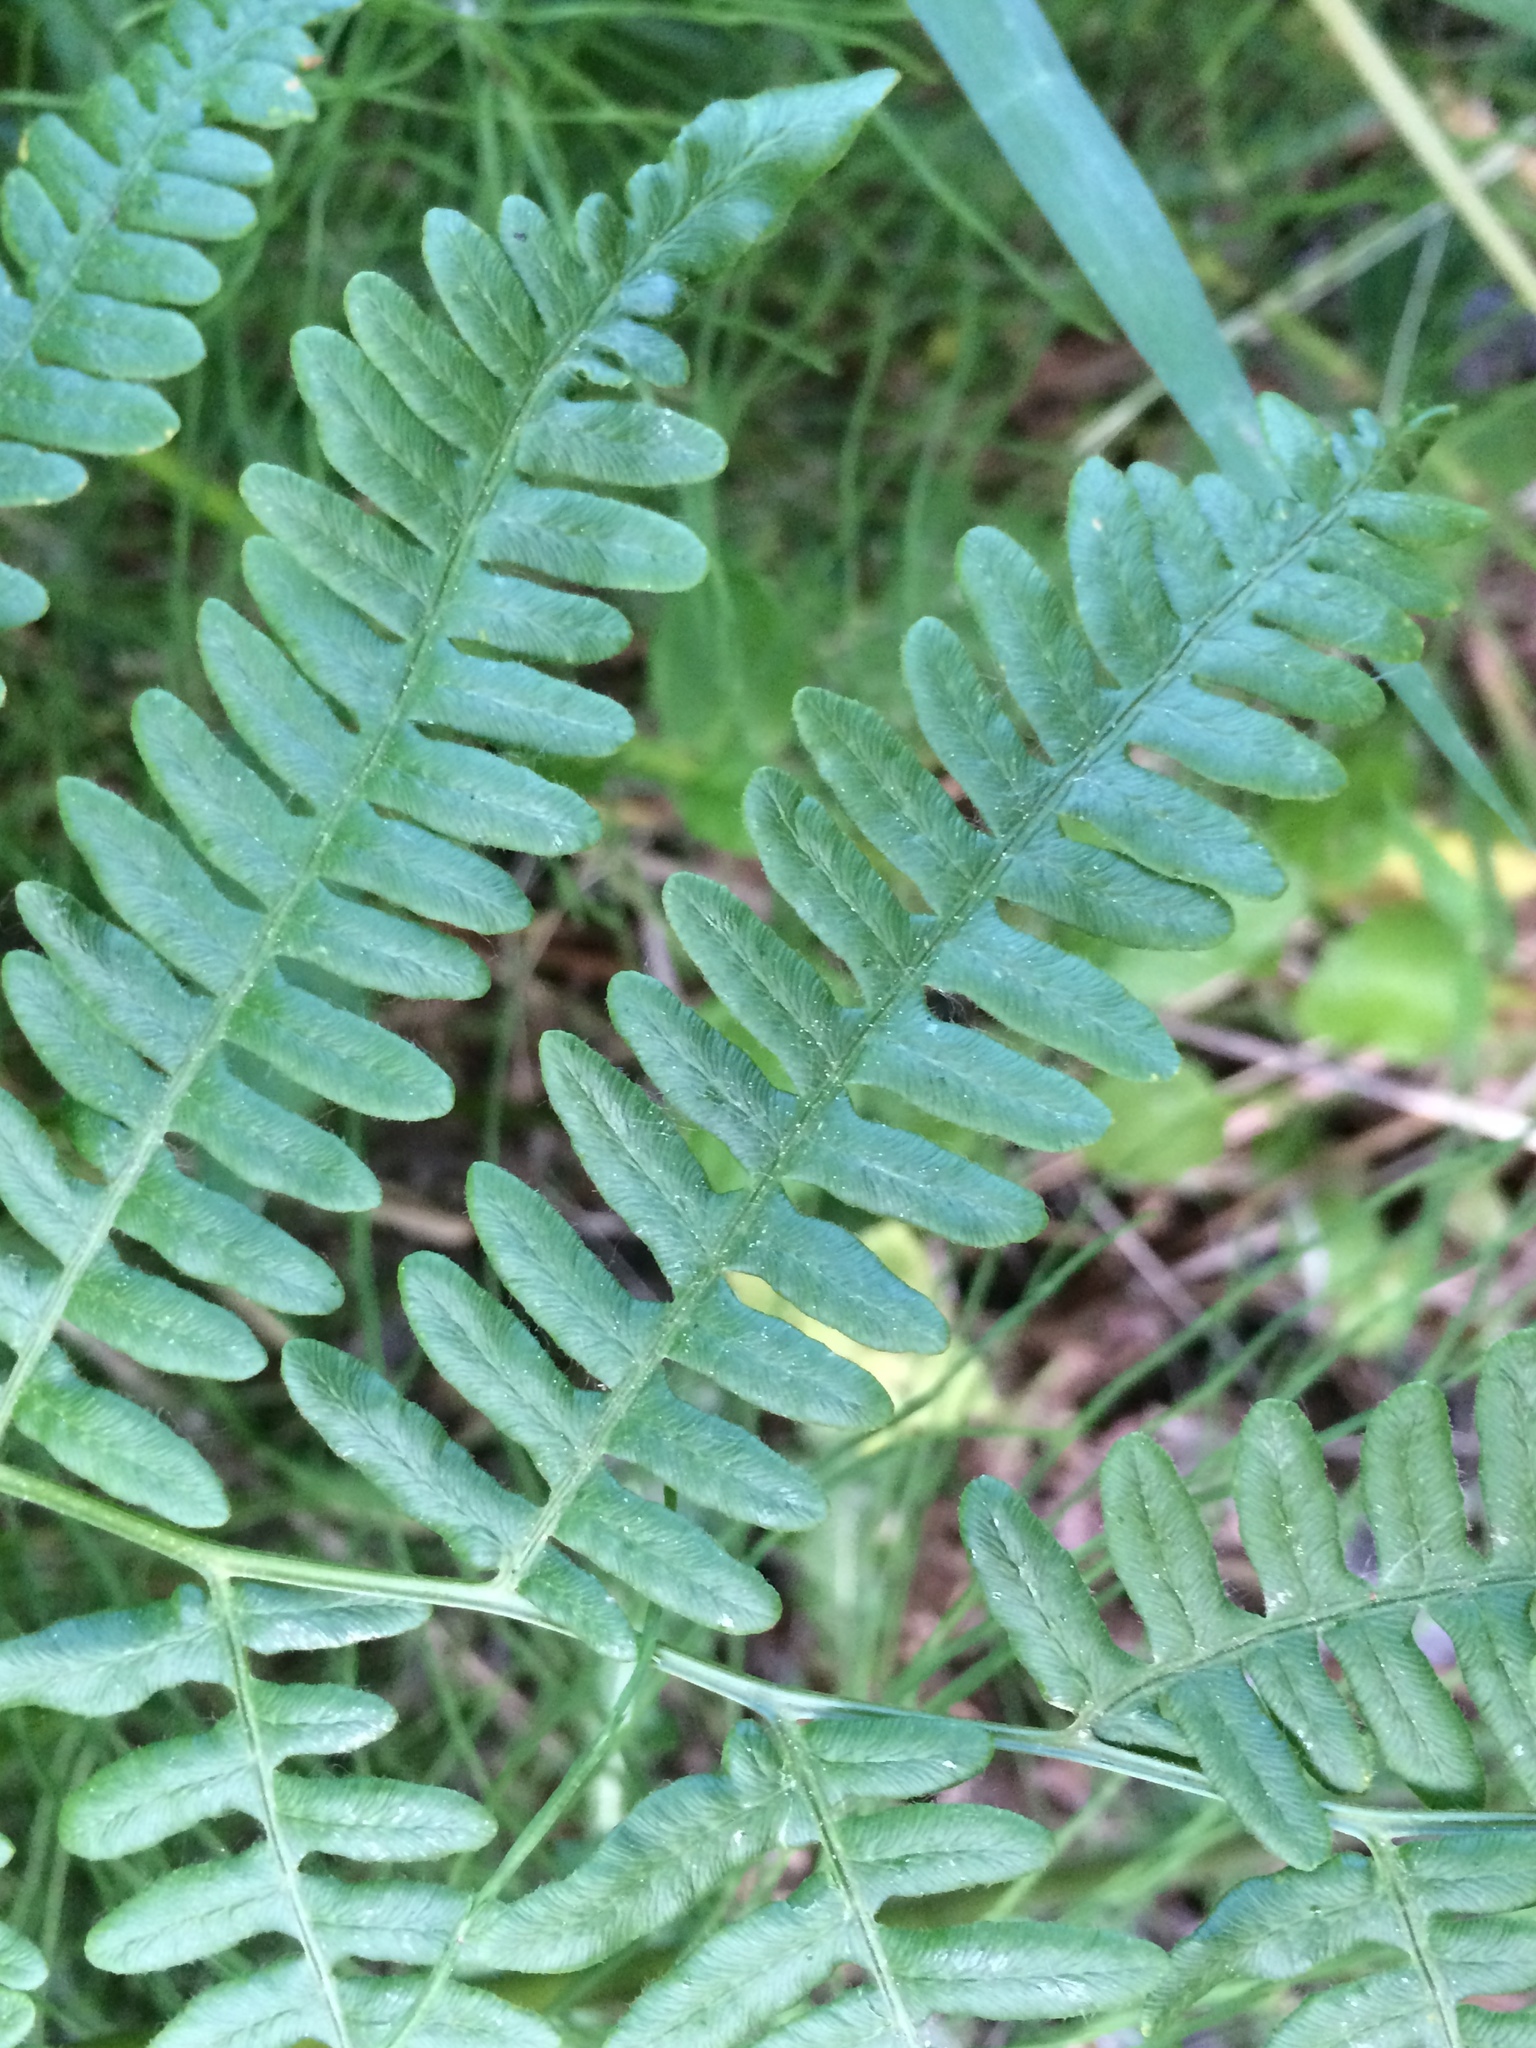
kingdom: Plantae
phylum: Tracheophyta
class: Polypodiopsida
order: Polypodiales
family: Dennstaedtiaceae
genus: Pteridium
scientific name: Pteridium aquilinum
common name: Bracken
